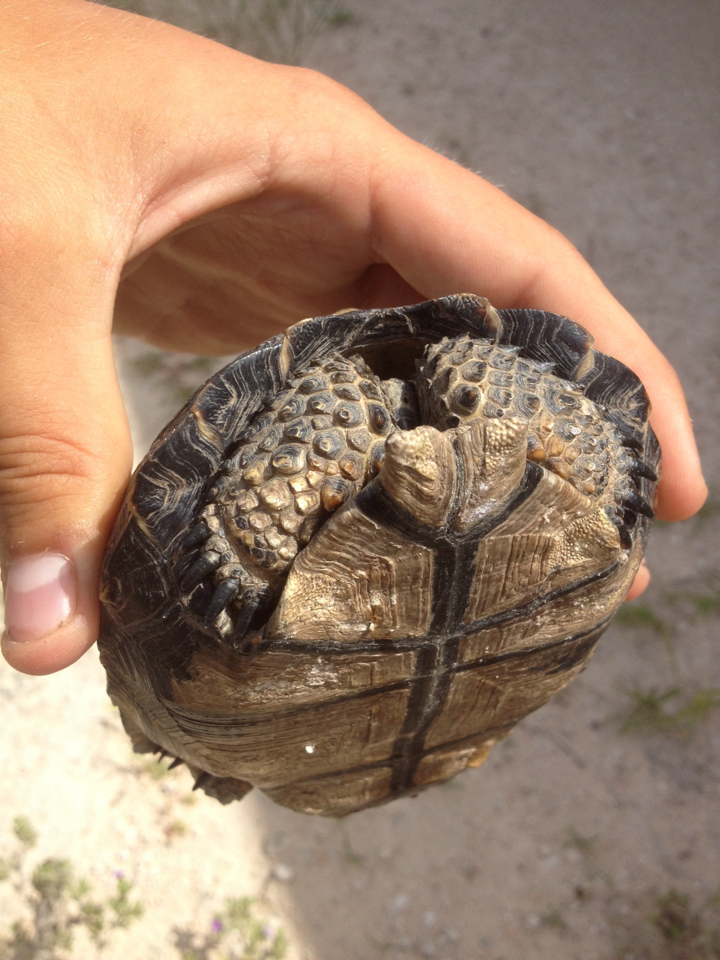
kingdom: Animalia
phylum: Chordata
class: Testudines
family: Testudinidae
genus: Gopherus
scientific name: Gopherus berlandieri
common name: Texas (gopher )tortoise
